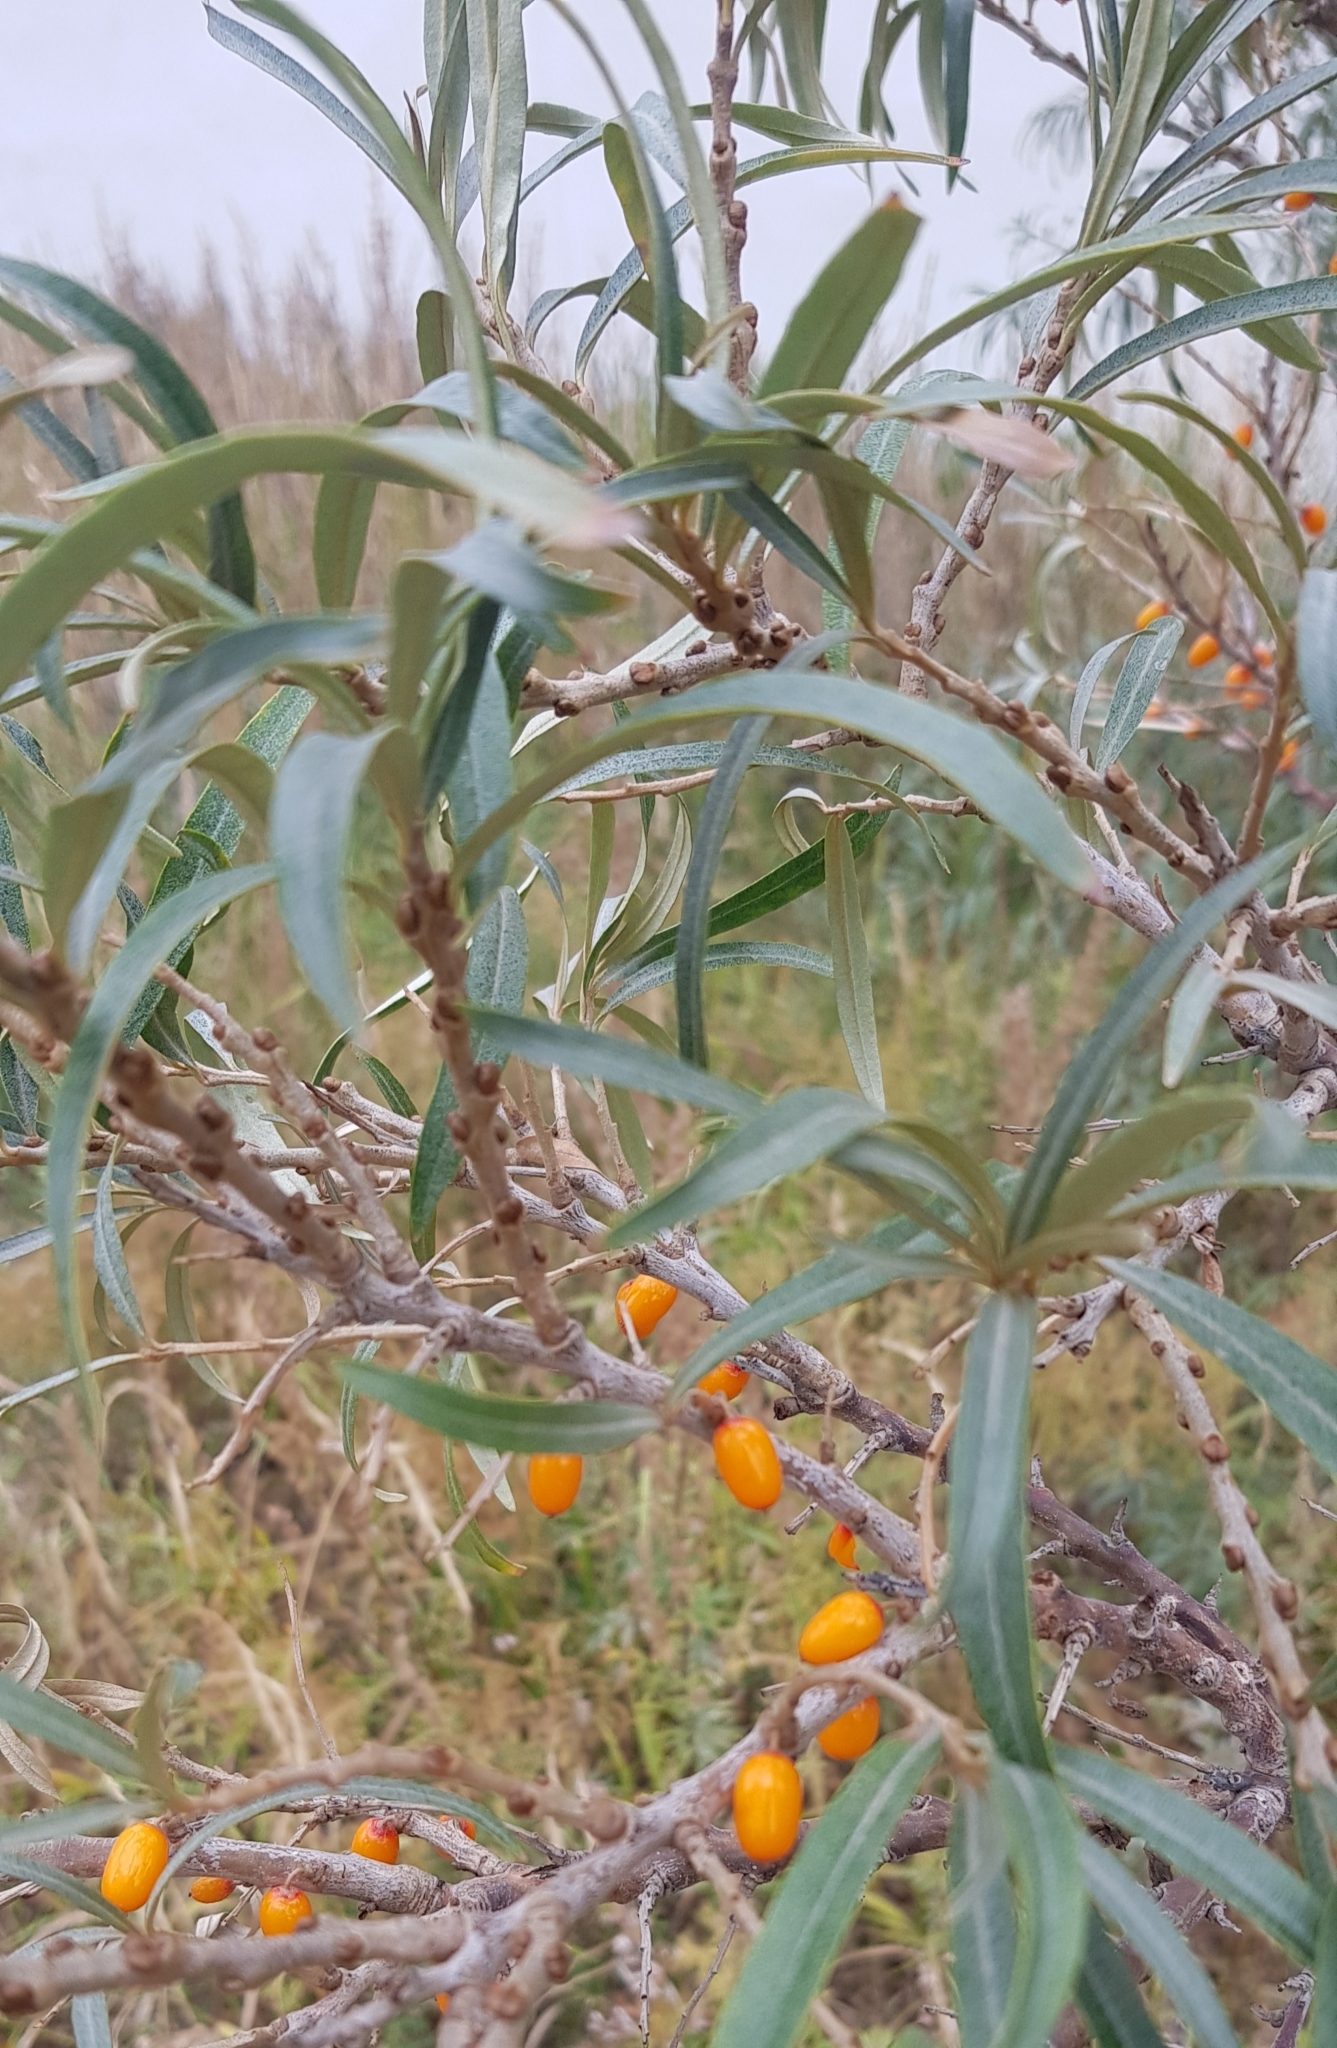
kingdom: Plantae
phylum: Tracheophyta
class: Magnoliopsida
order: Rosales
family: Elaeagnaceae
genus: Hippophae
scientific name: Hippophae rhamnoides
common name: Sea-buckthorn
